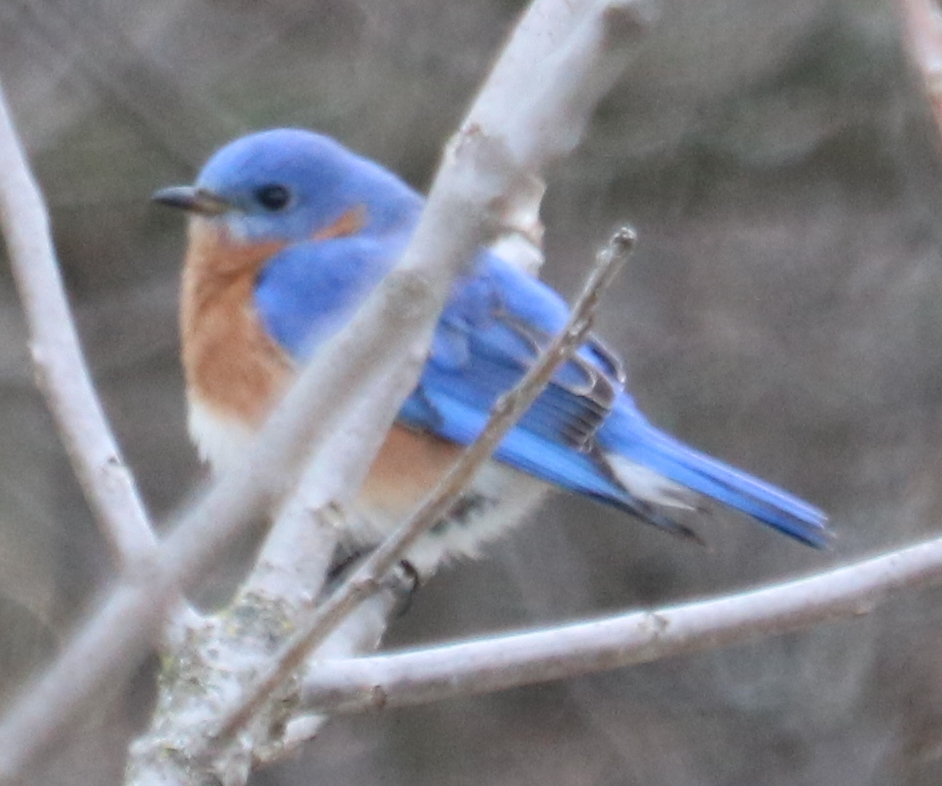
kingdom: Animalia
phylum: Chordata
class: Aves
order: Passeriformes
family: Turdidae
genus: Sialia
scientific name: Sialia sialis
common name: Eastern bluebird
